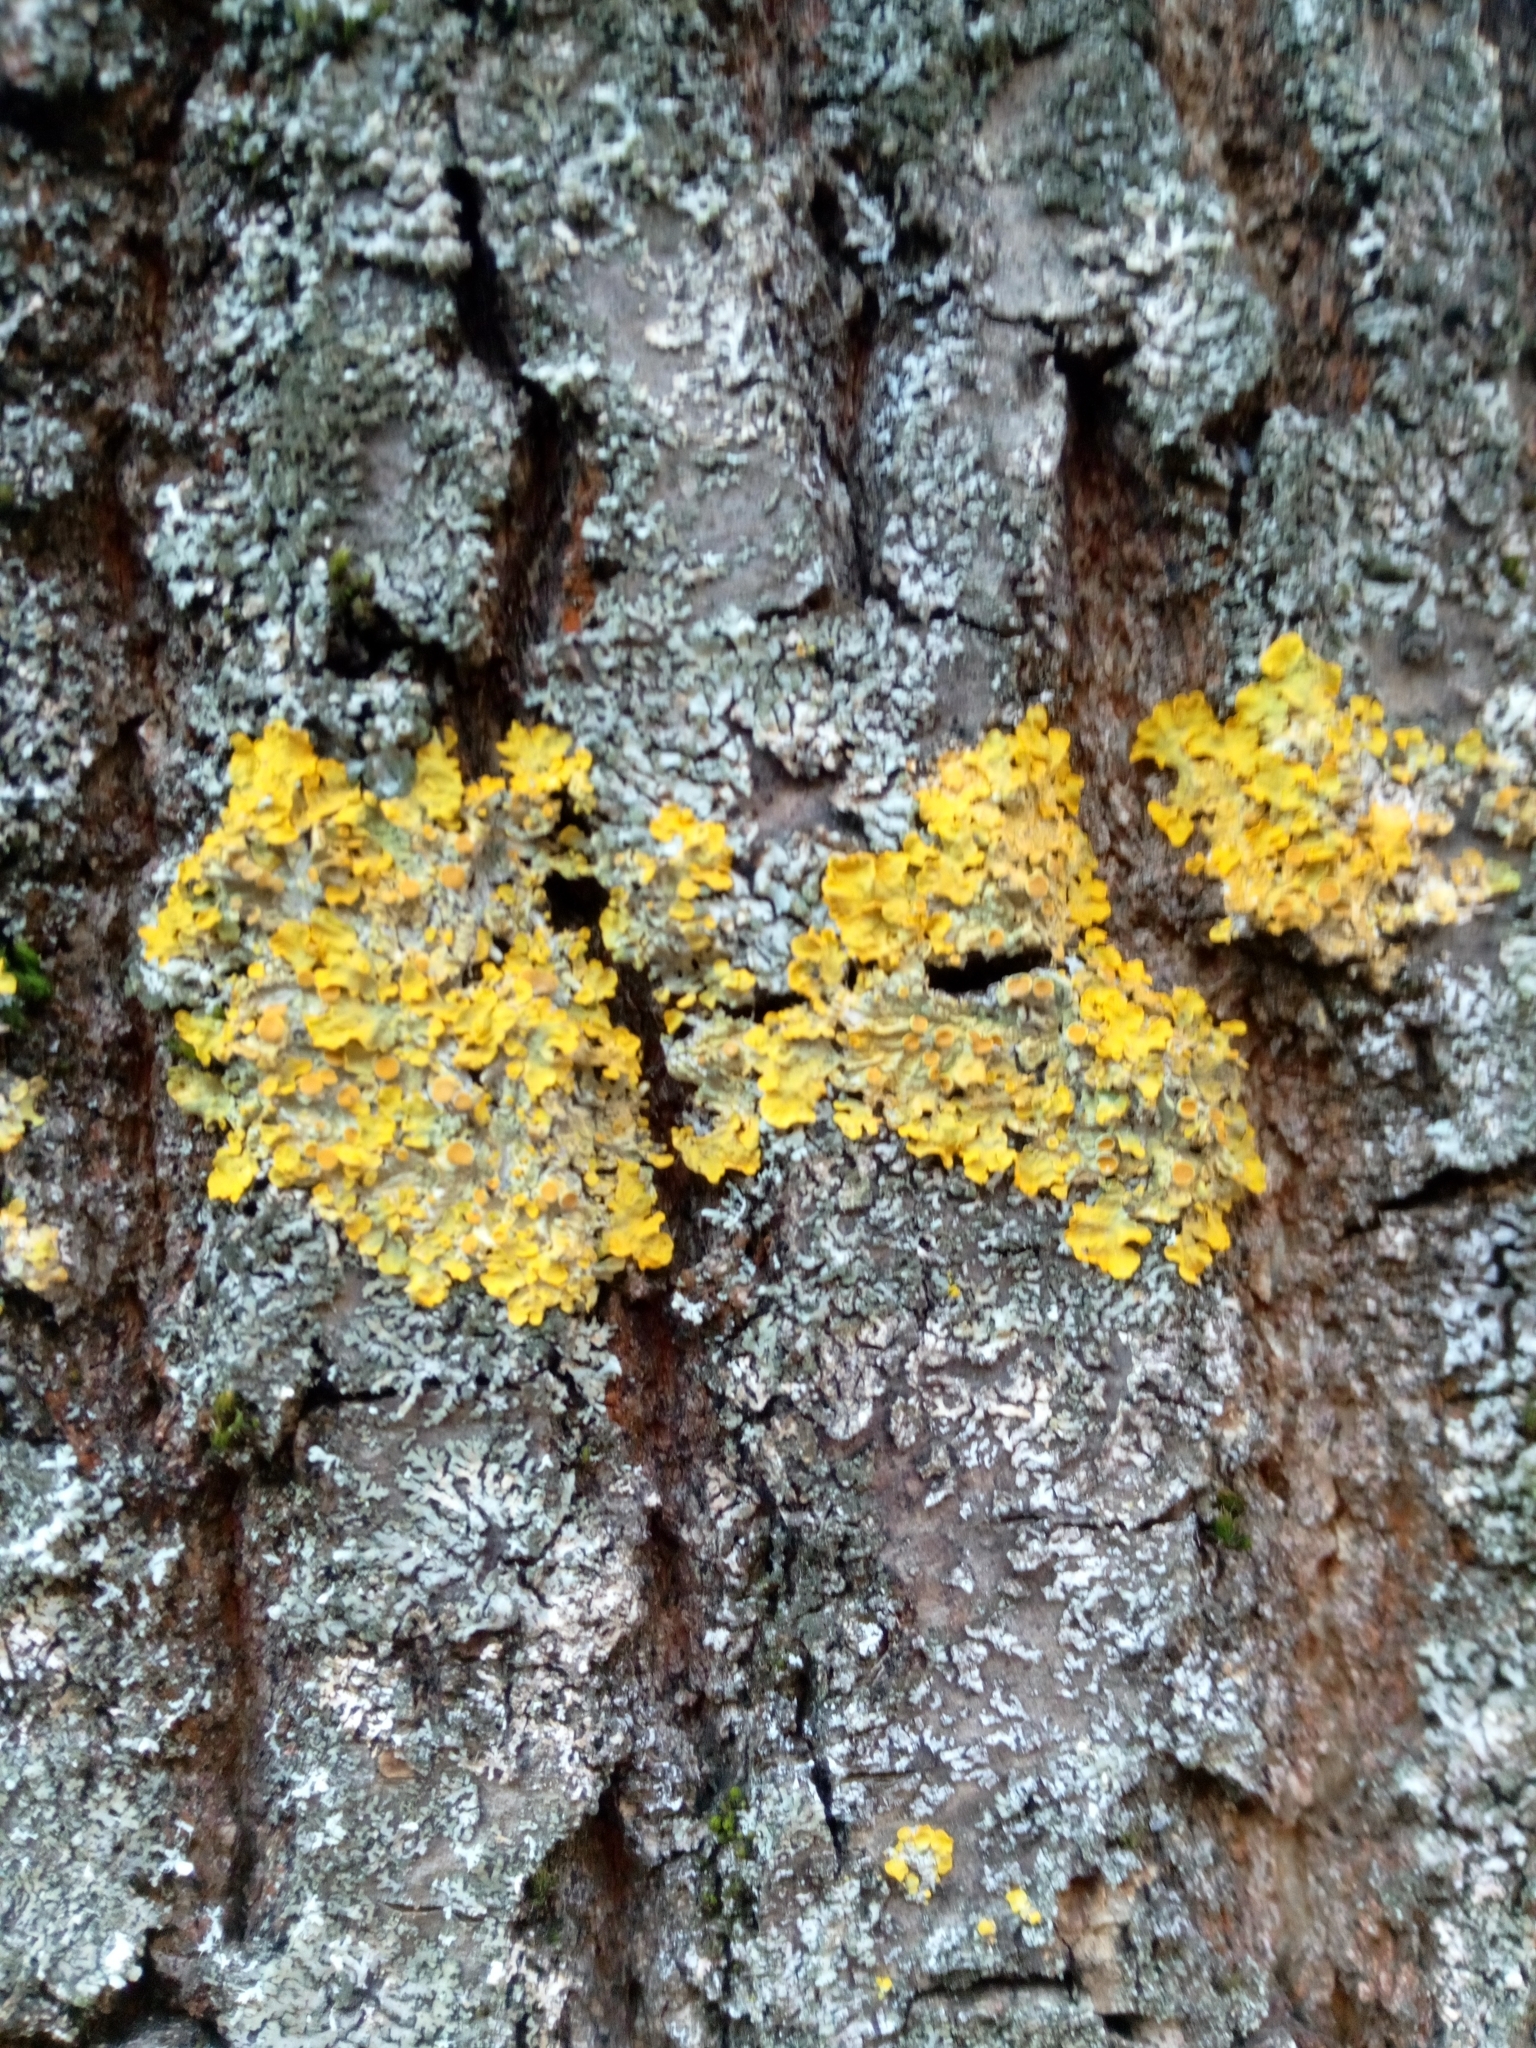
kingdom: Fungi
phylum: Ascomycota
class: Lecanoromycetes
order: Teloschistales
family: Teloschistaceae
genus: Xanthoria
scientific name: Xanthoria parietina
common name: Common orange lichen
